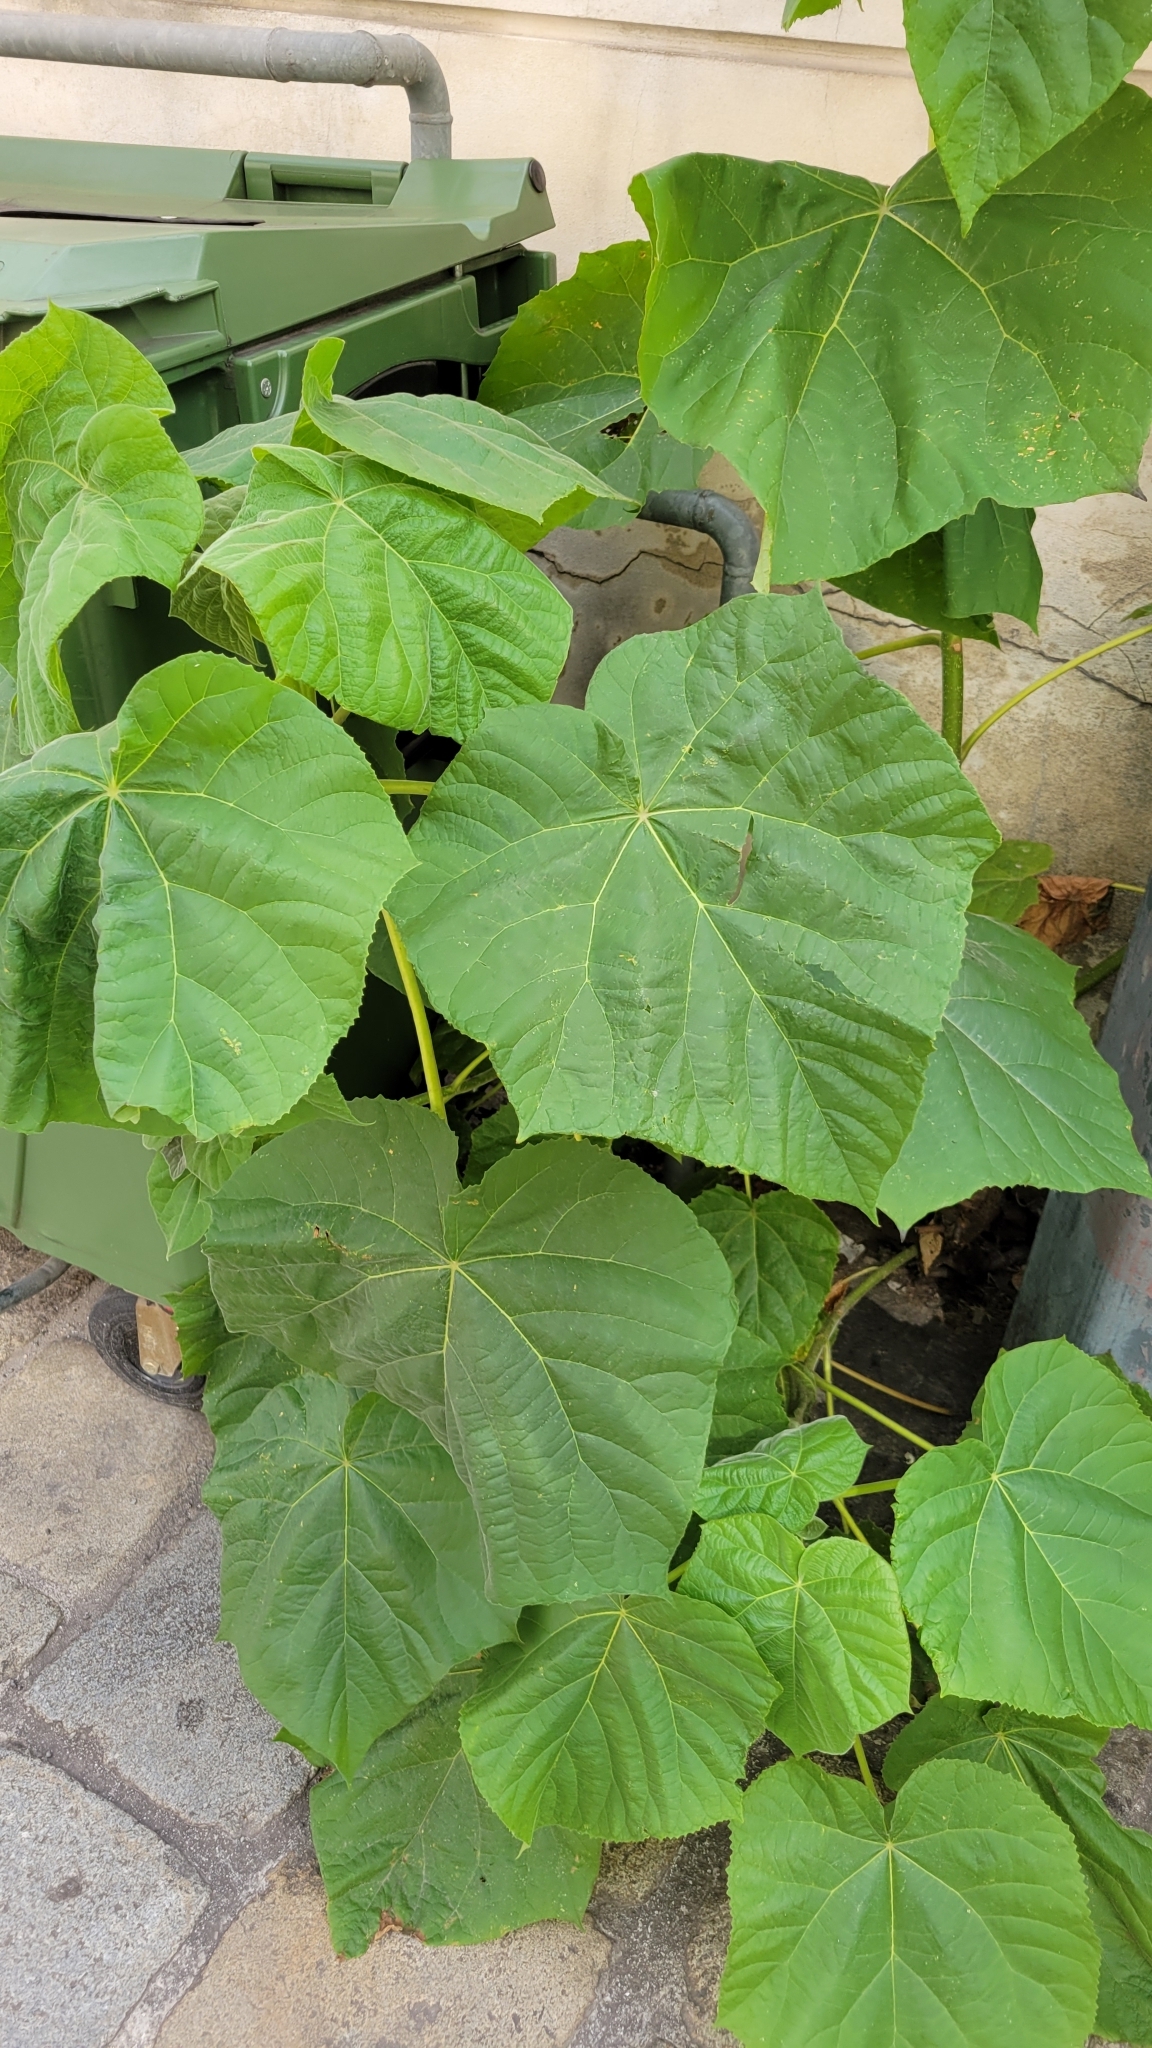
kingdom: Plantae
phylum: Tracheophyta
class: Magnoliopsida
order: Lamiales
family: Paulowniaceae
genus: Paulownia
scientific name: Paulownia tomentosa
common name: Foxglove-tree
